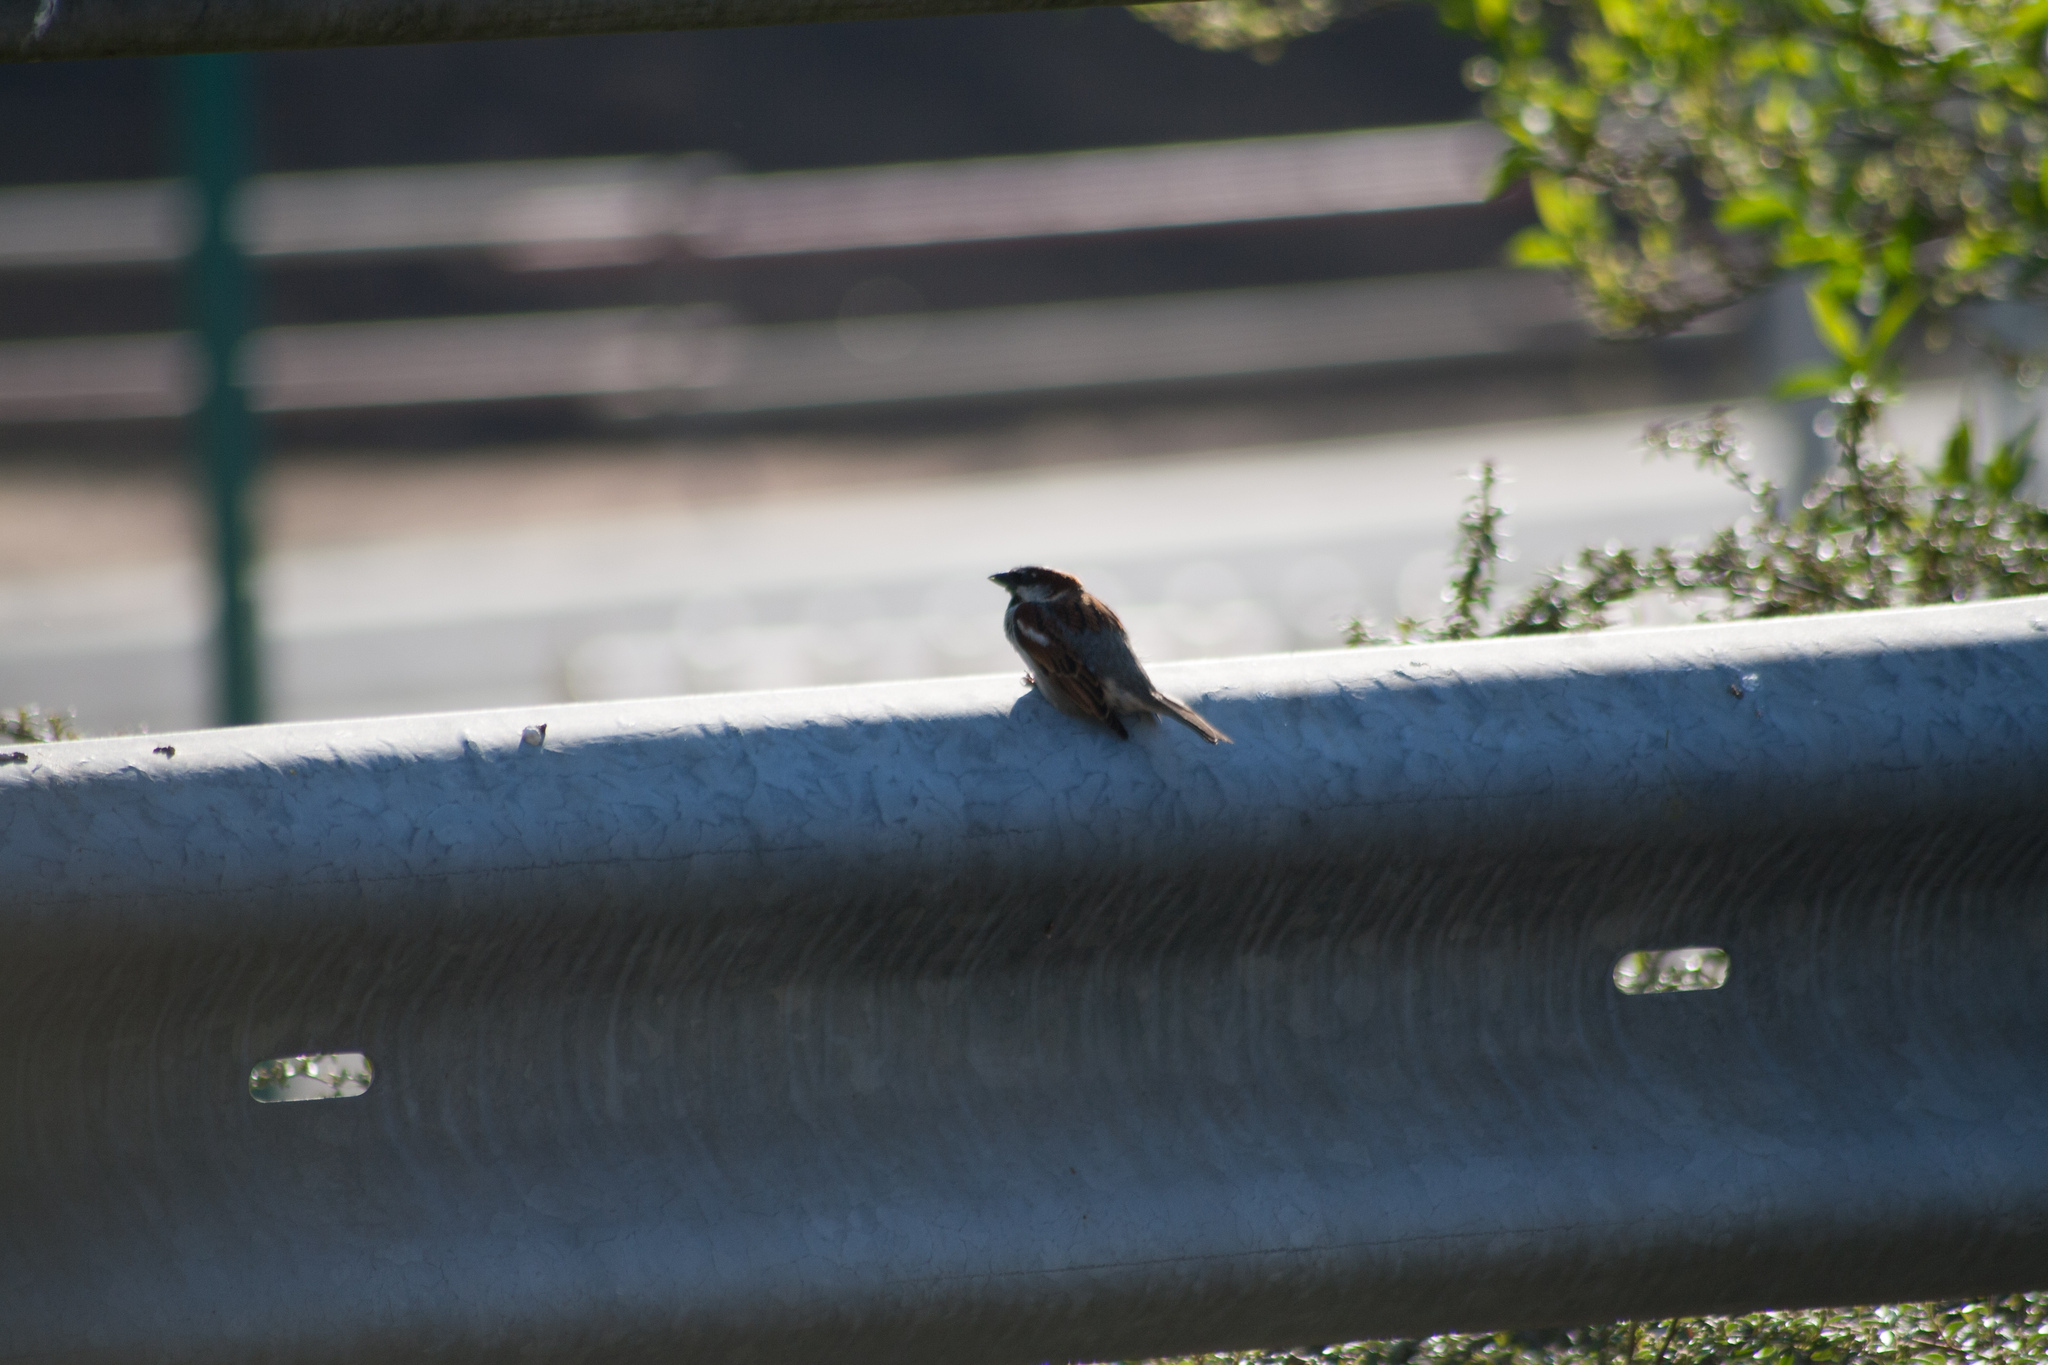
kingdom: Animalia
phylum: Chordata
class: Aves
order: Passeriformes
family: Passeridae
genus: Passer
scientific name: Passer domesticus
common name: House sparrow
